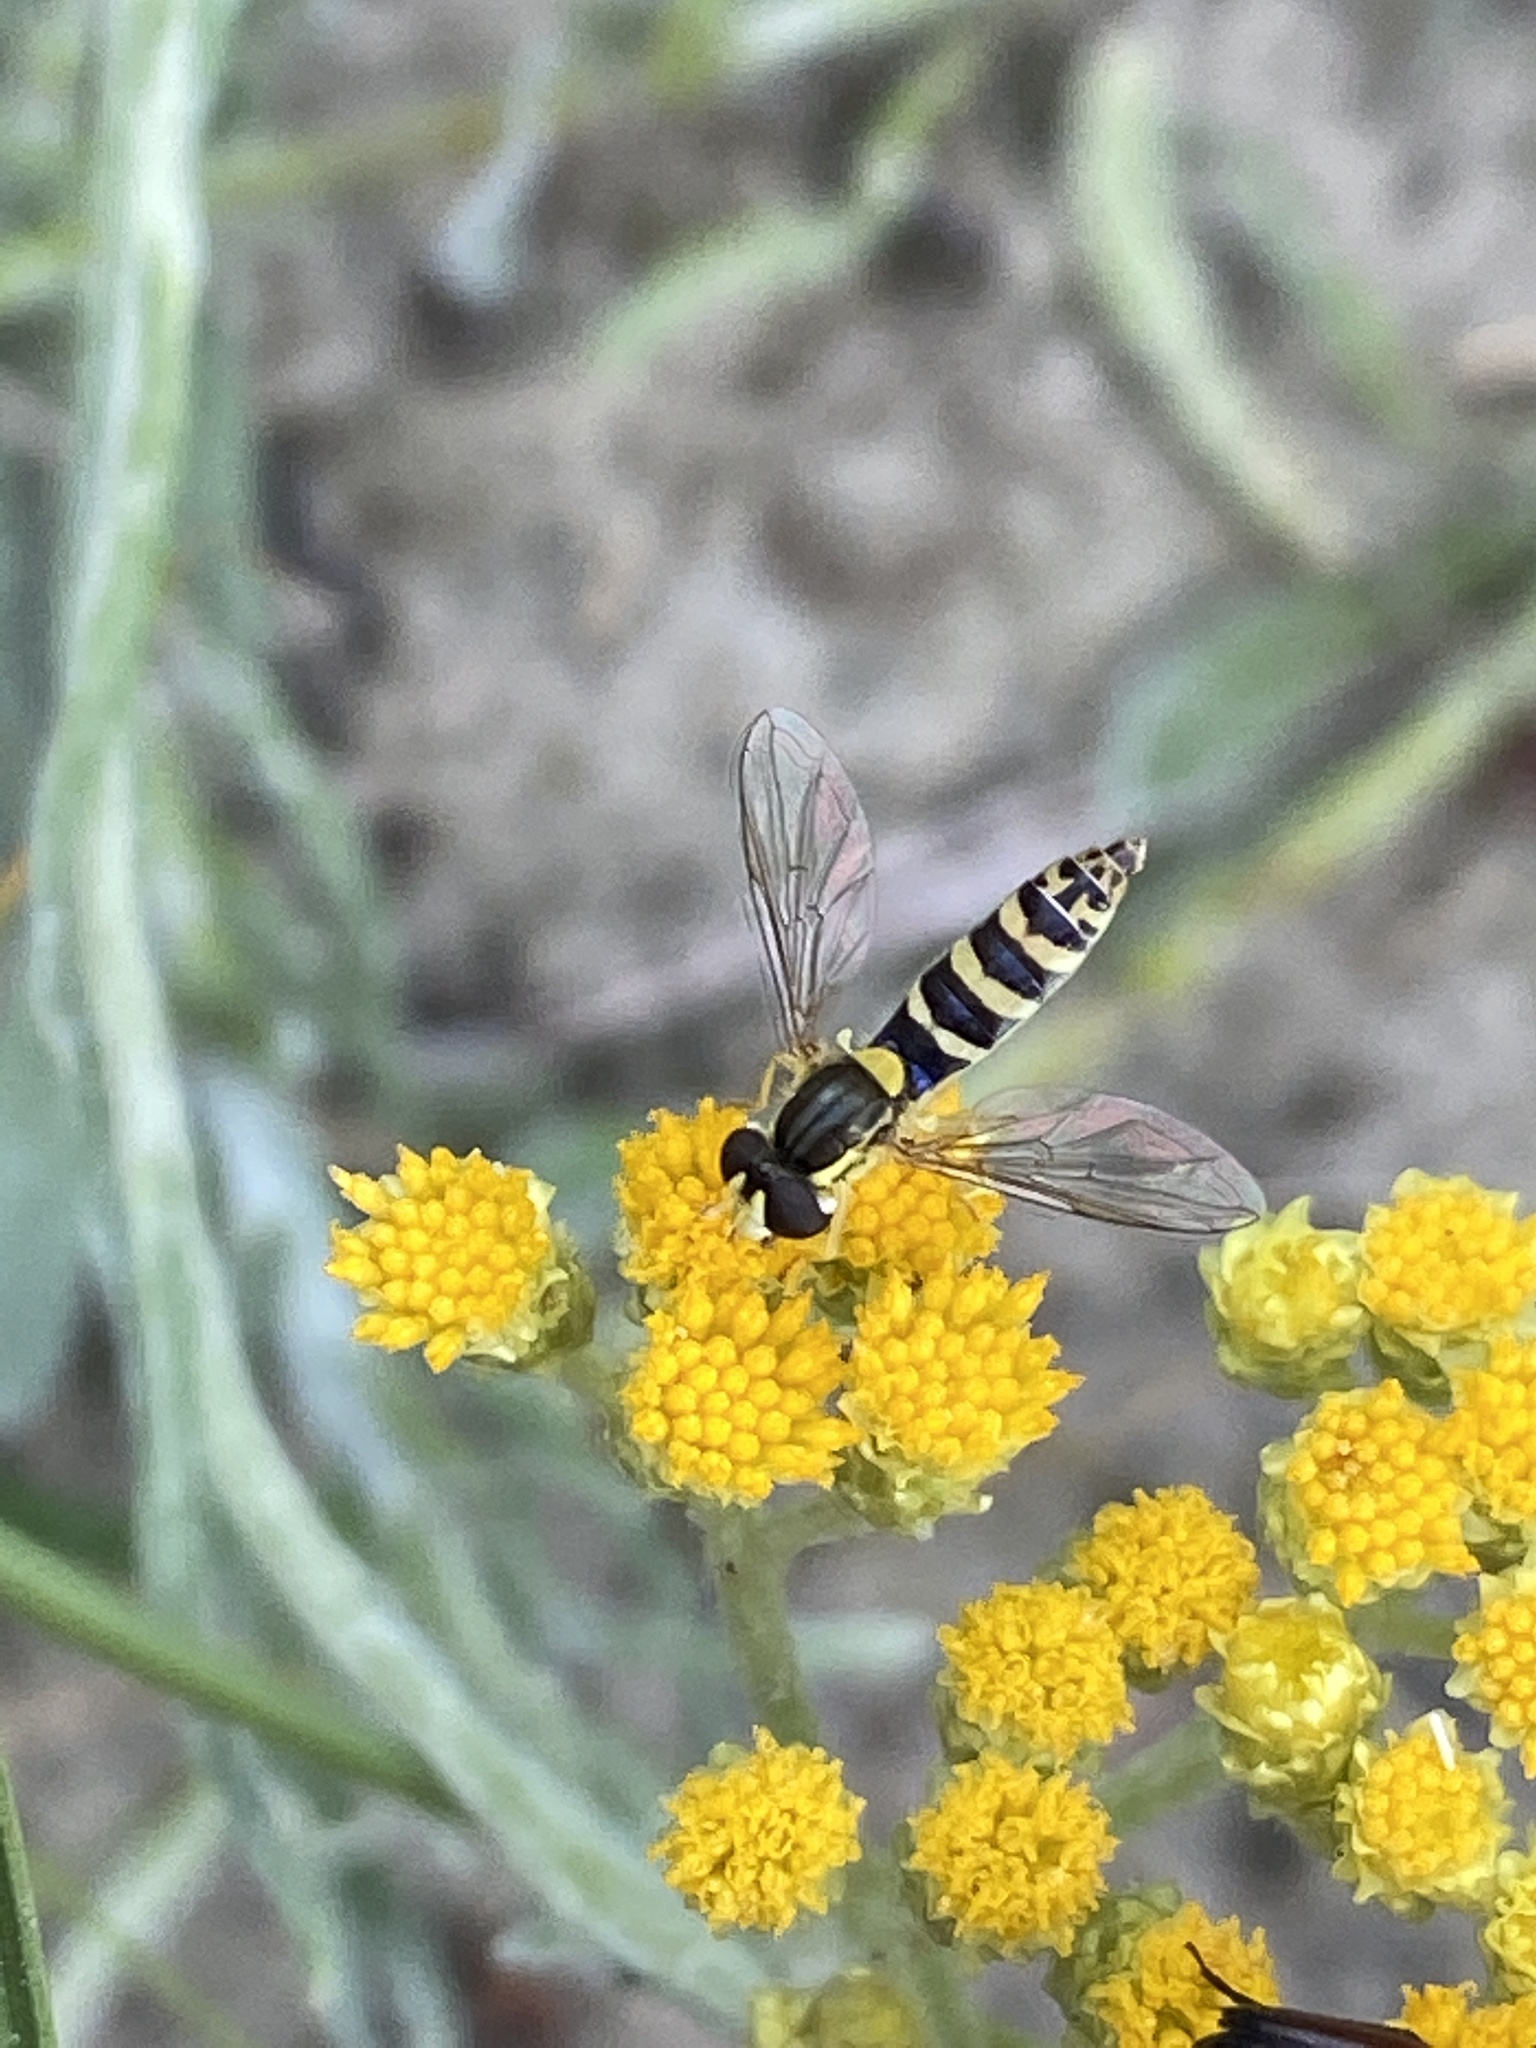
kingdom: Animalia
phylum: Arthropoda
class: Insecta
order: Diptera
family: Syrphidae
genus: Sphaerophoria
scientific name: Sphaerophoria
